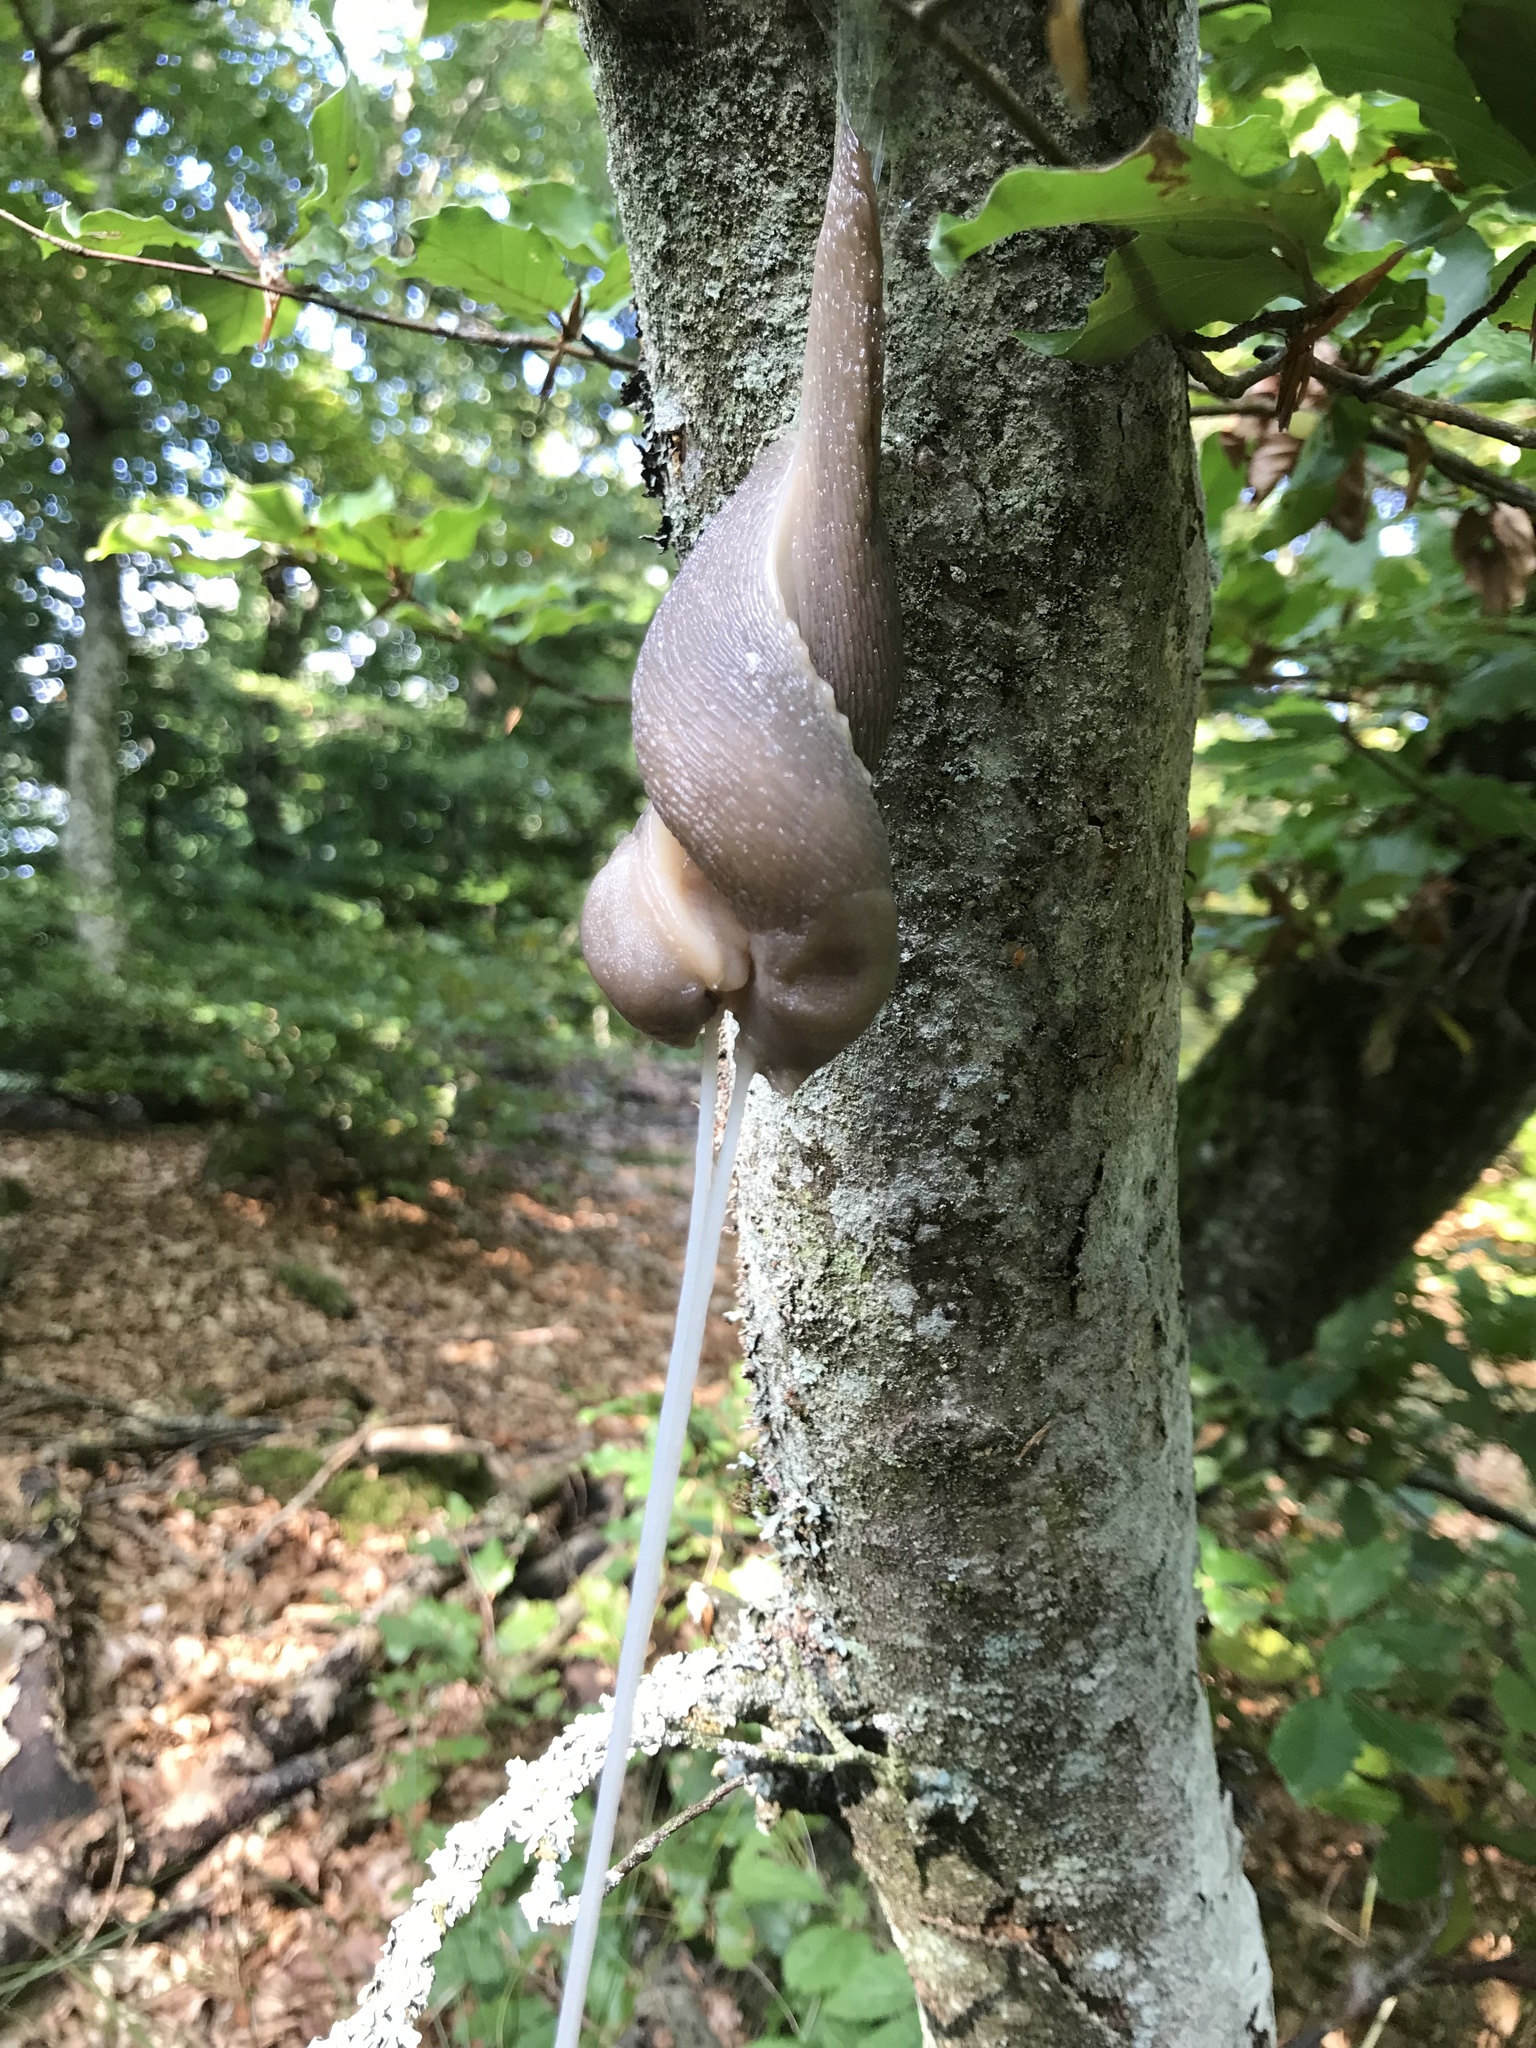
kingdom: Animalia
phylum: Mollusca
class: Gastropoda
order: Stylommatophora
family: Limacidae
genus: Limax
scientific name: Limax cinereoniger
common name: Ash-black slug
